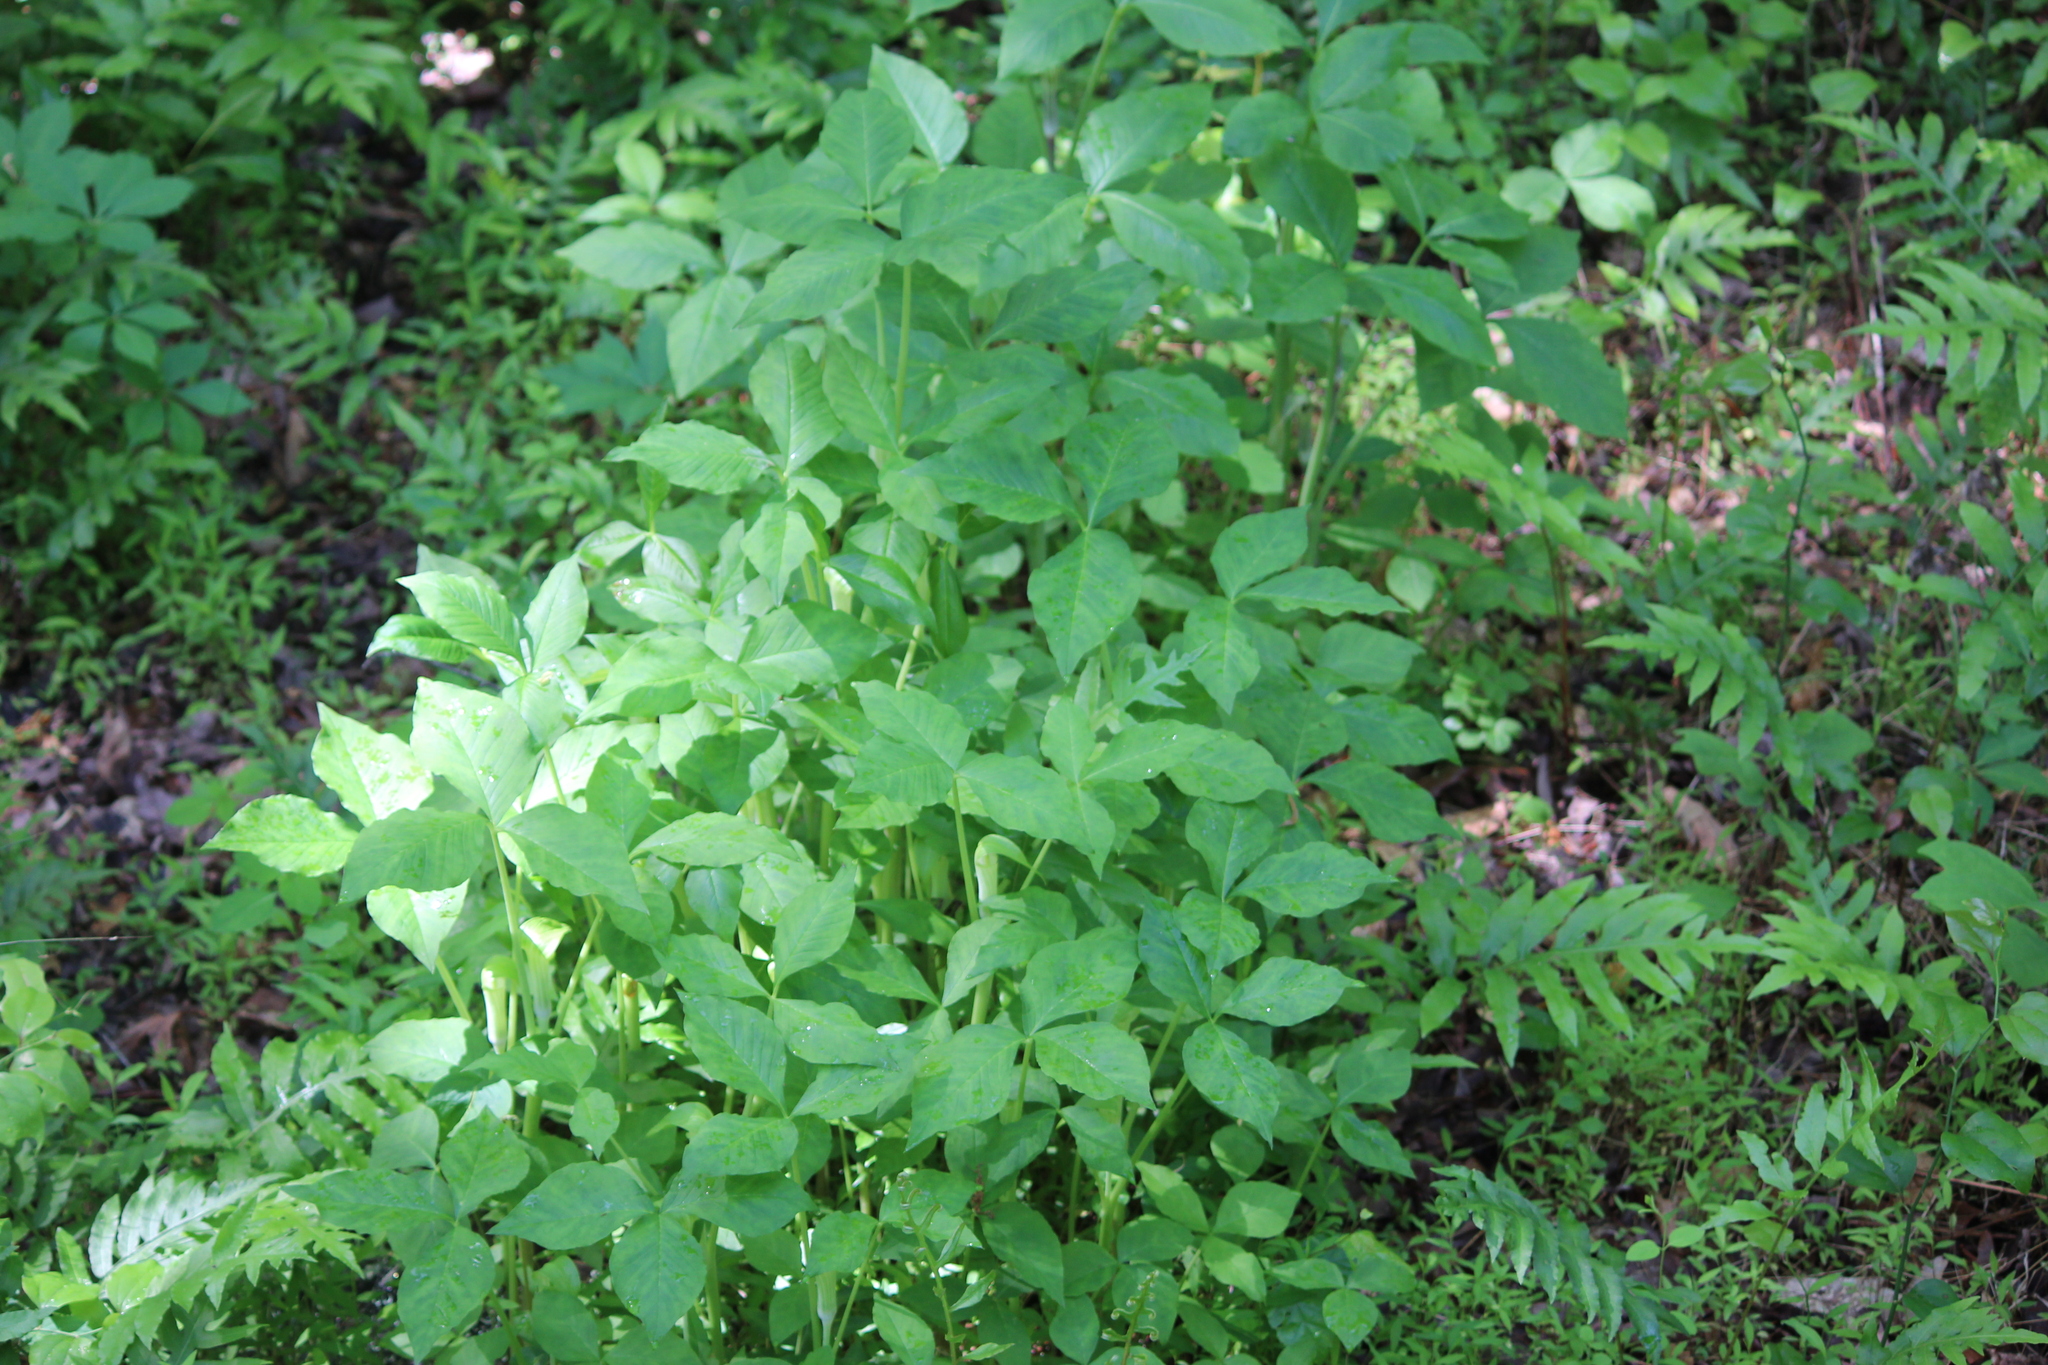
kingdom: Plantae
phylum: Tracheophyta
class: Liliopsida
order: Alismatales
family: Araceae
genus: Arisaema
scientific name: Arisaema triphyllum
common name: Jack-in-the-pulpit
